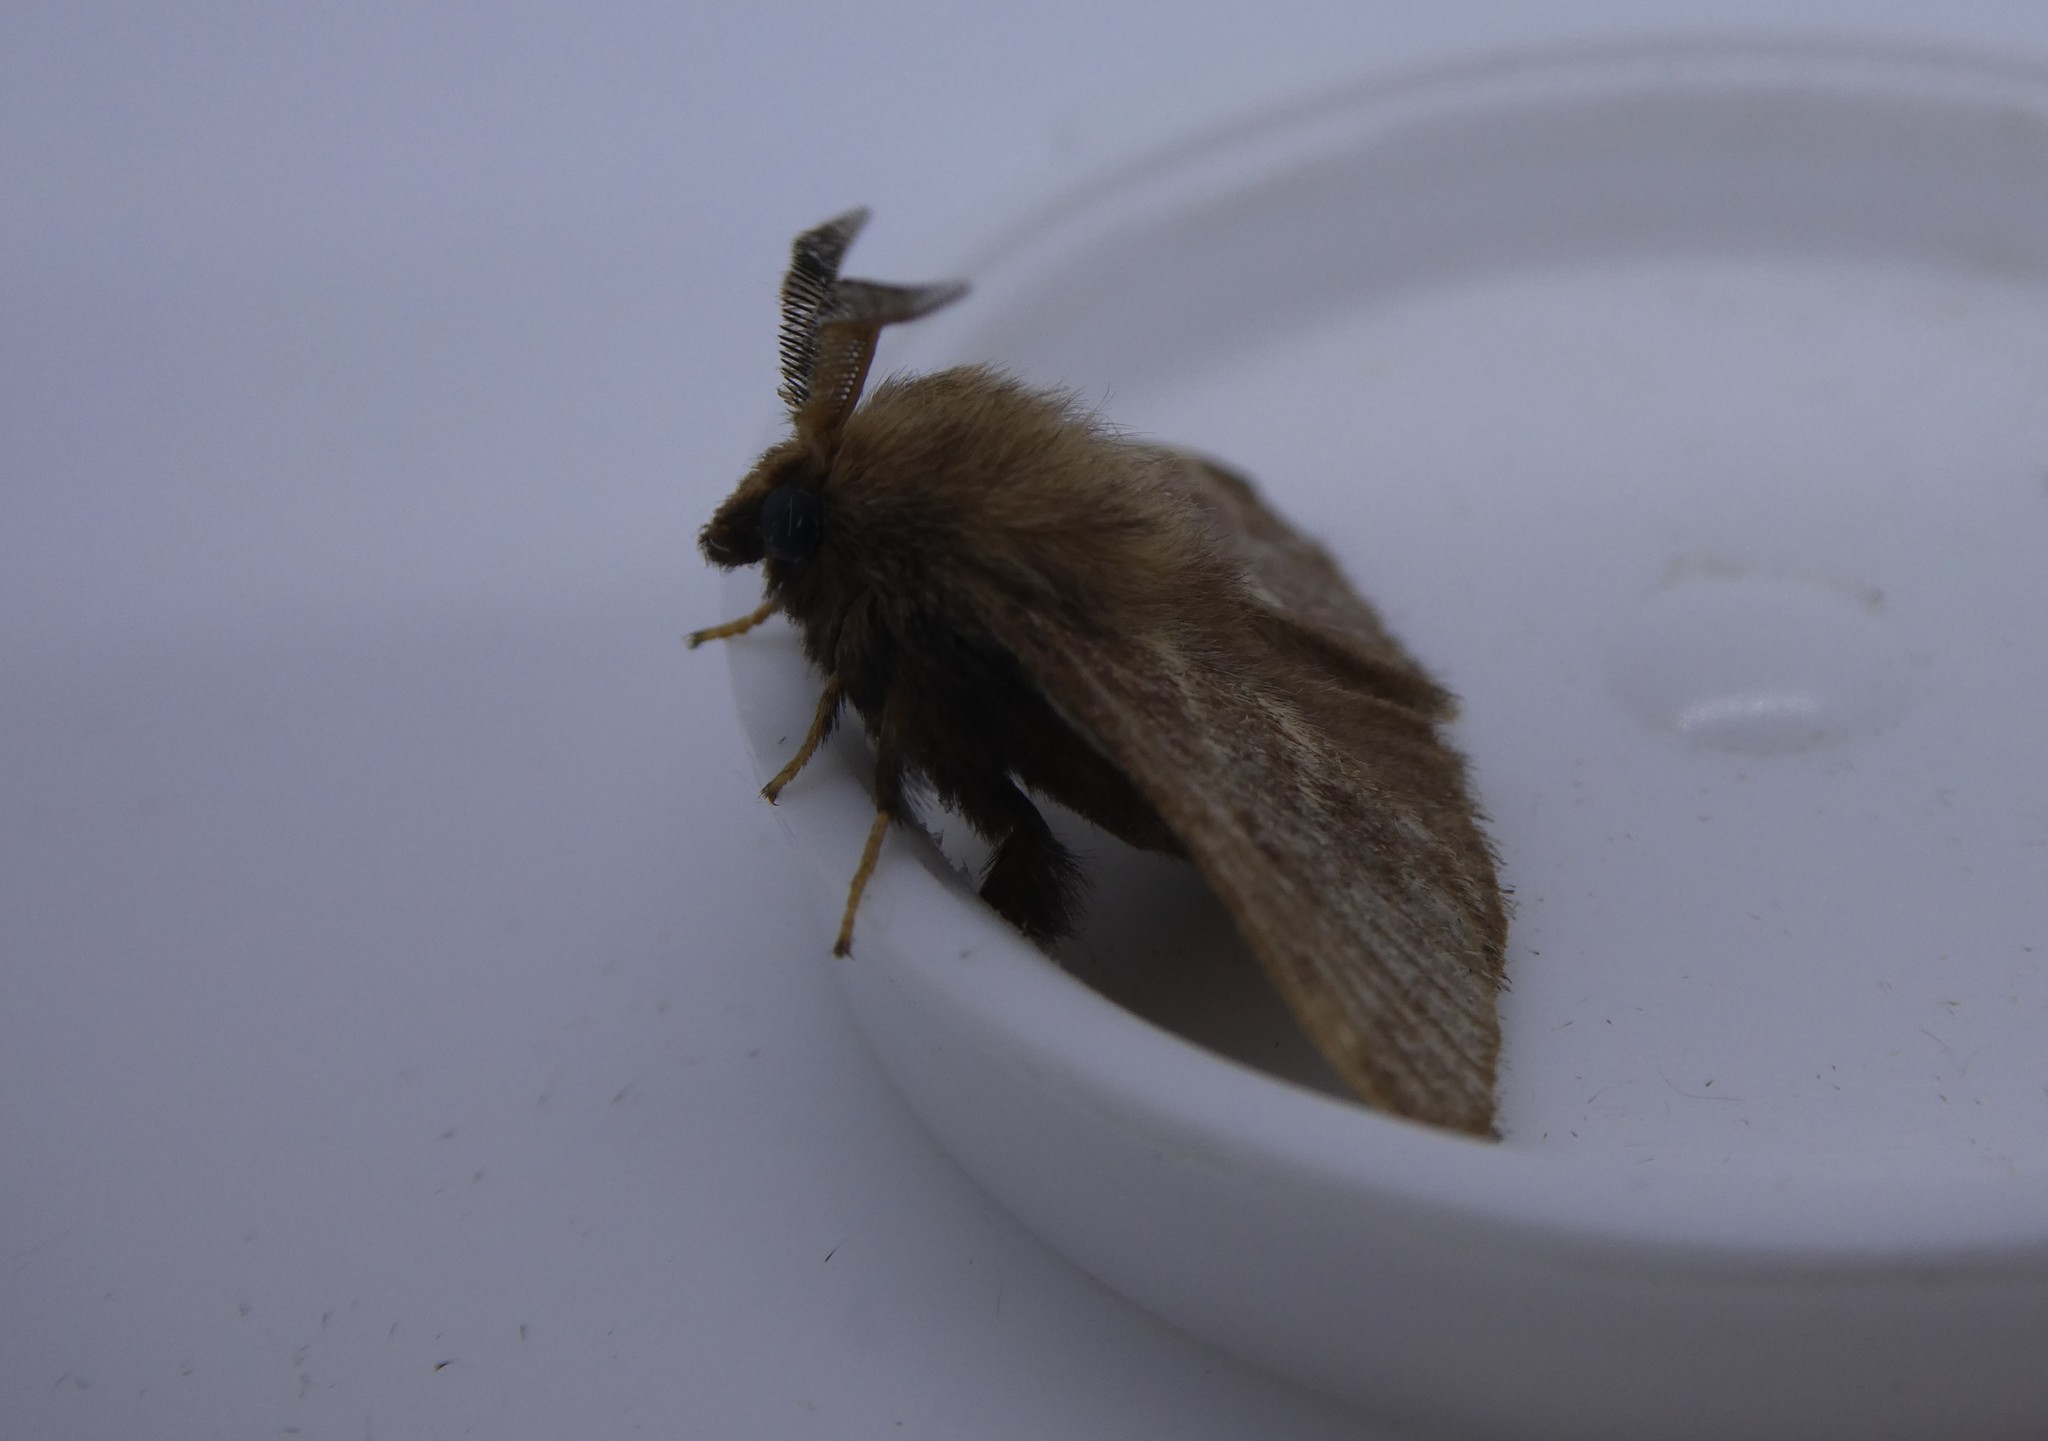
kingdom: Animalia
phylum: Arthropoda
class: Insecta
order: Lepidoptera
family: Lasiocampidae
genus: Malacosoma
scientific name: Malacosoma americana
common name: Eastern tent caterpillar moth
